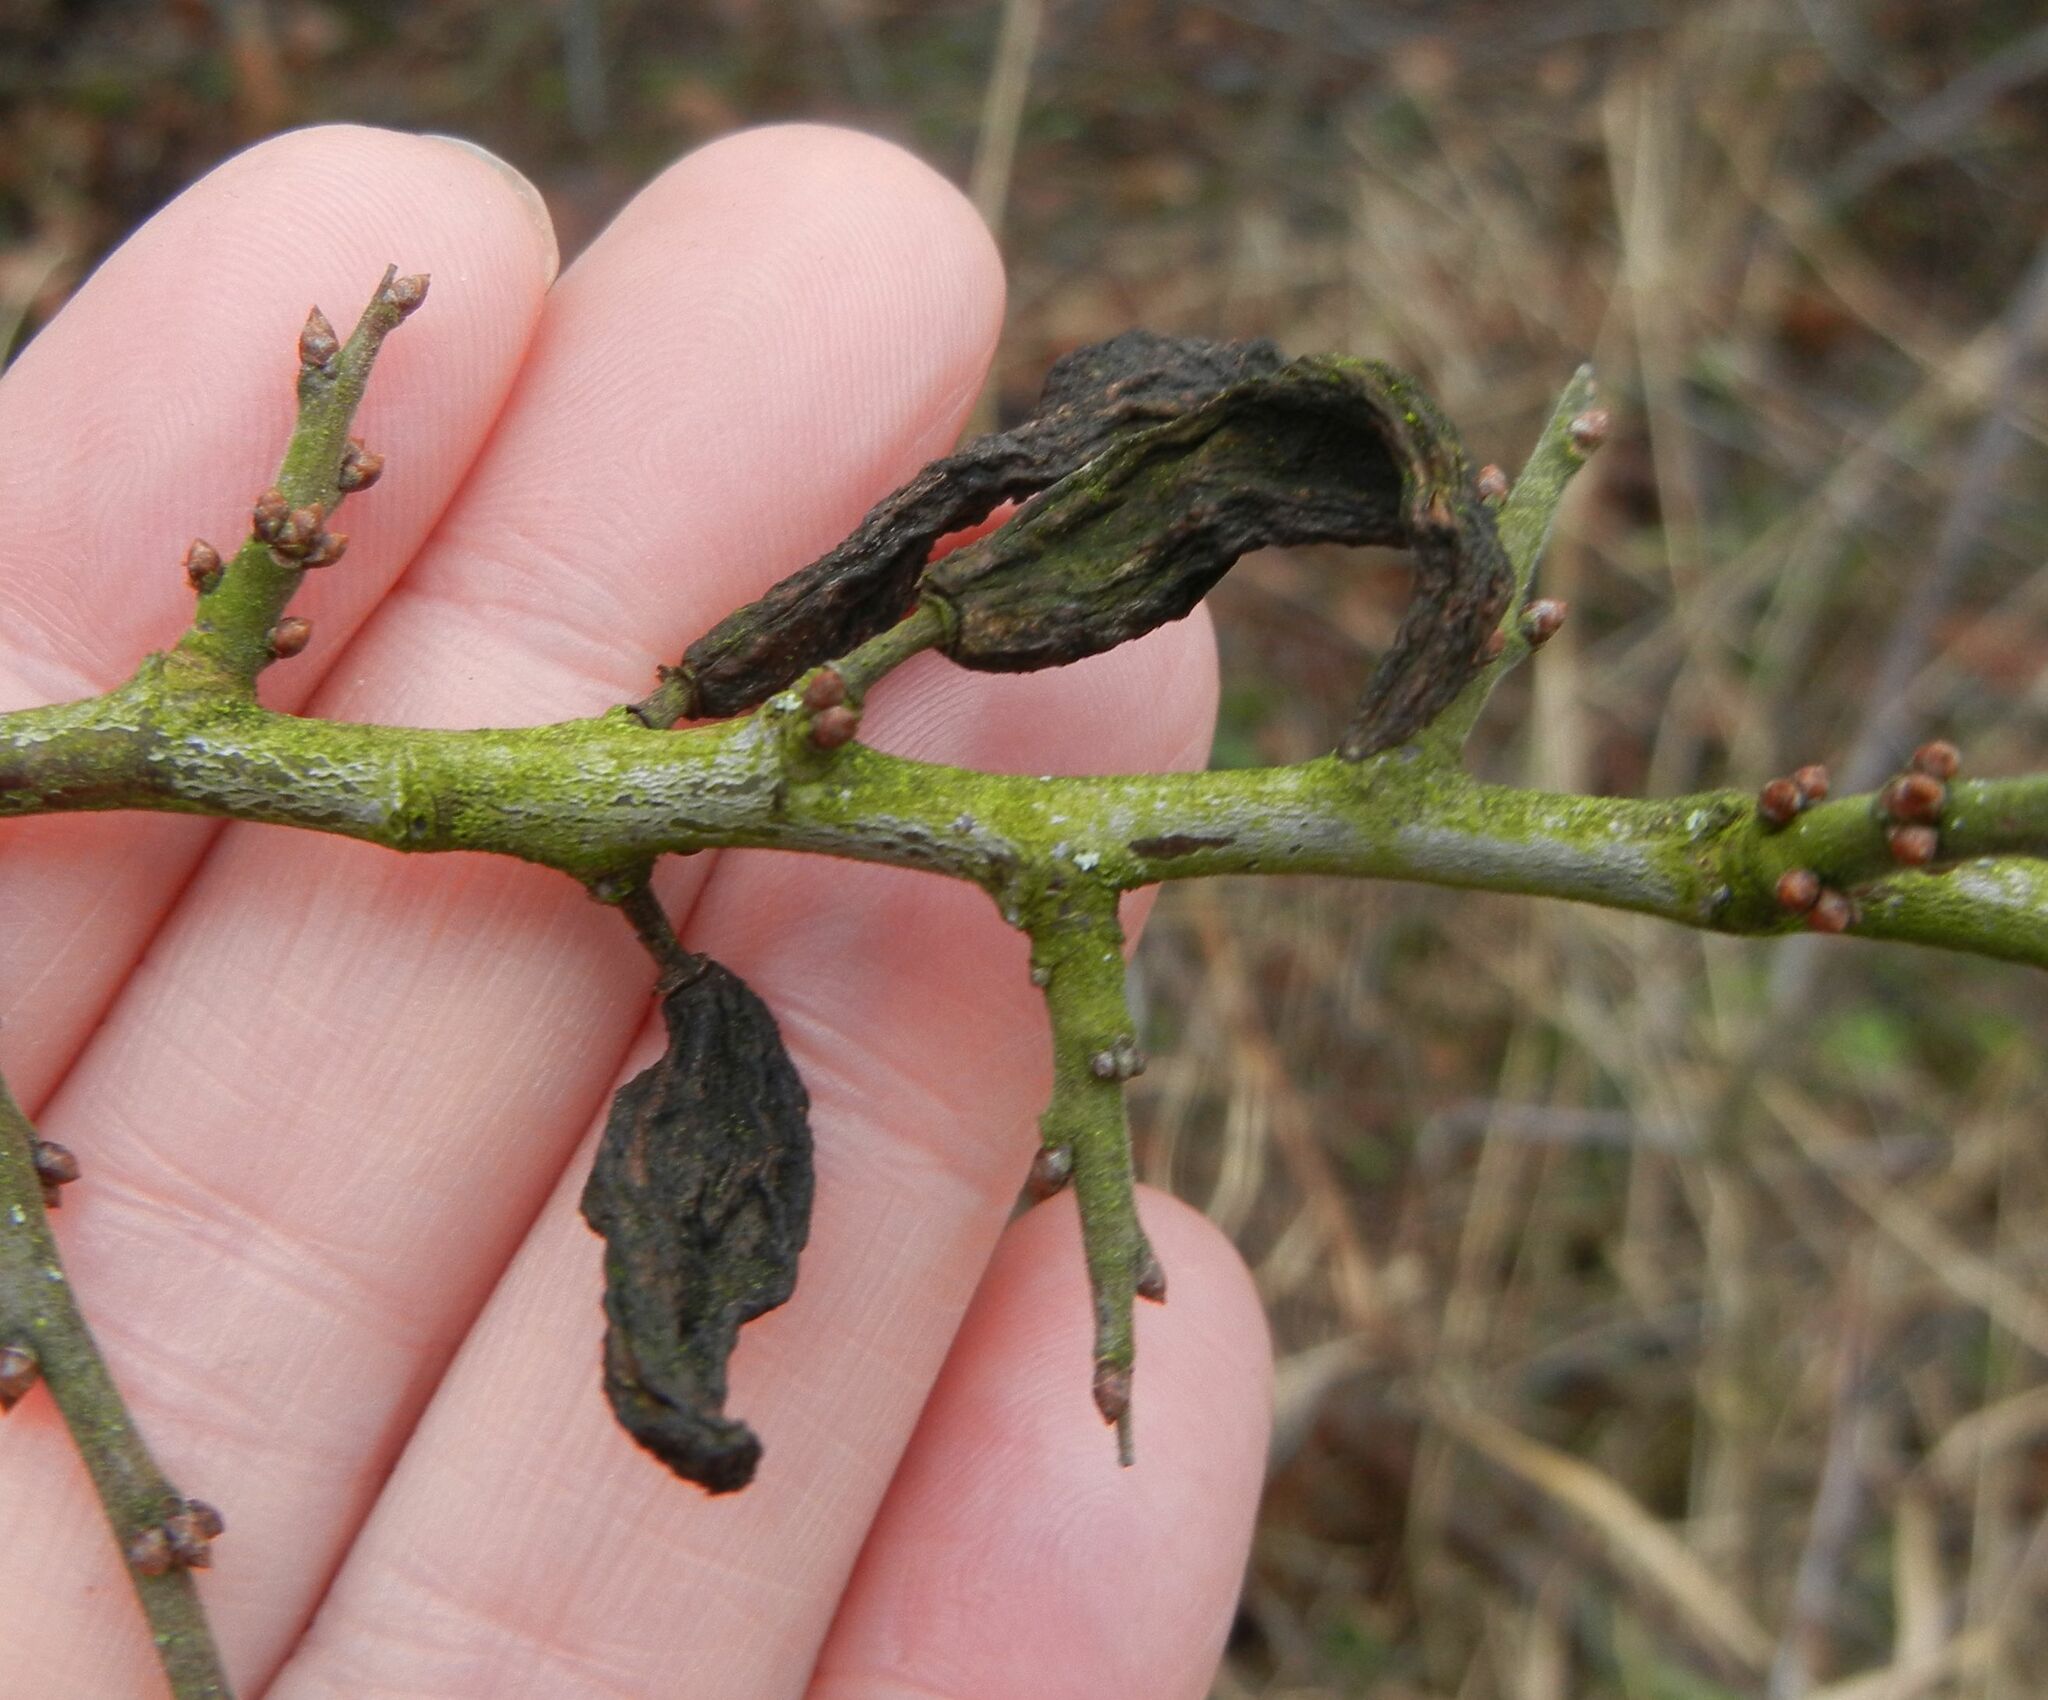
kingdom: Fungi
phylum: Ascomycota
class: Taphrinomycetes
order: Taphrinales
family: Taphrinaceae
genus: Taphrina
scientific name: Taphrina pruni
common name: Pocket plum
